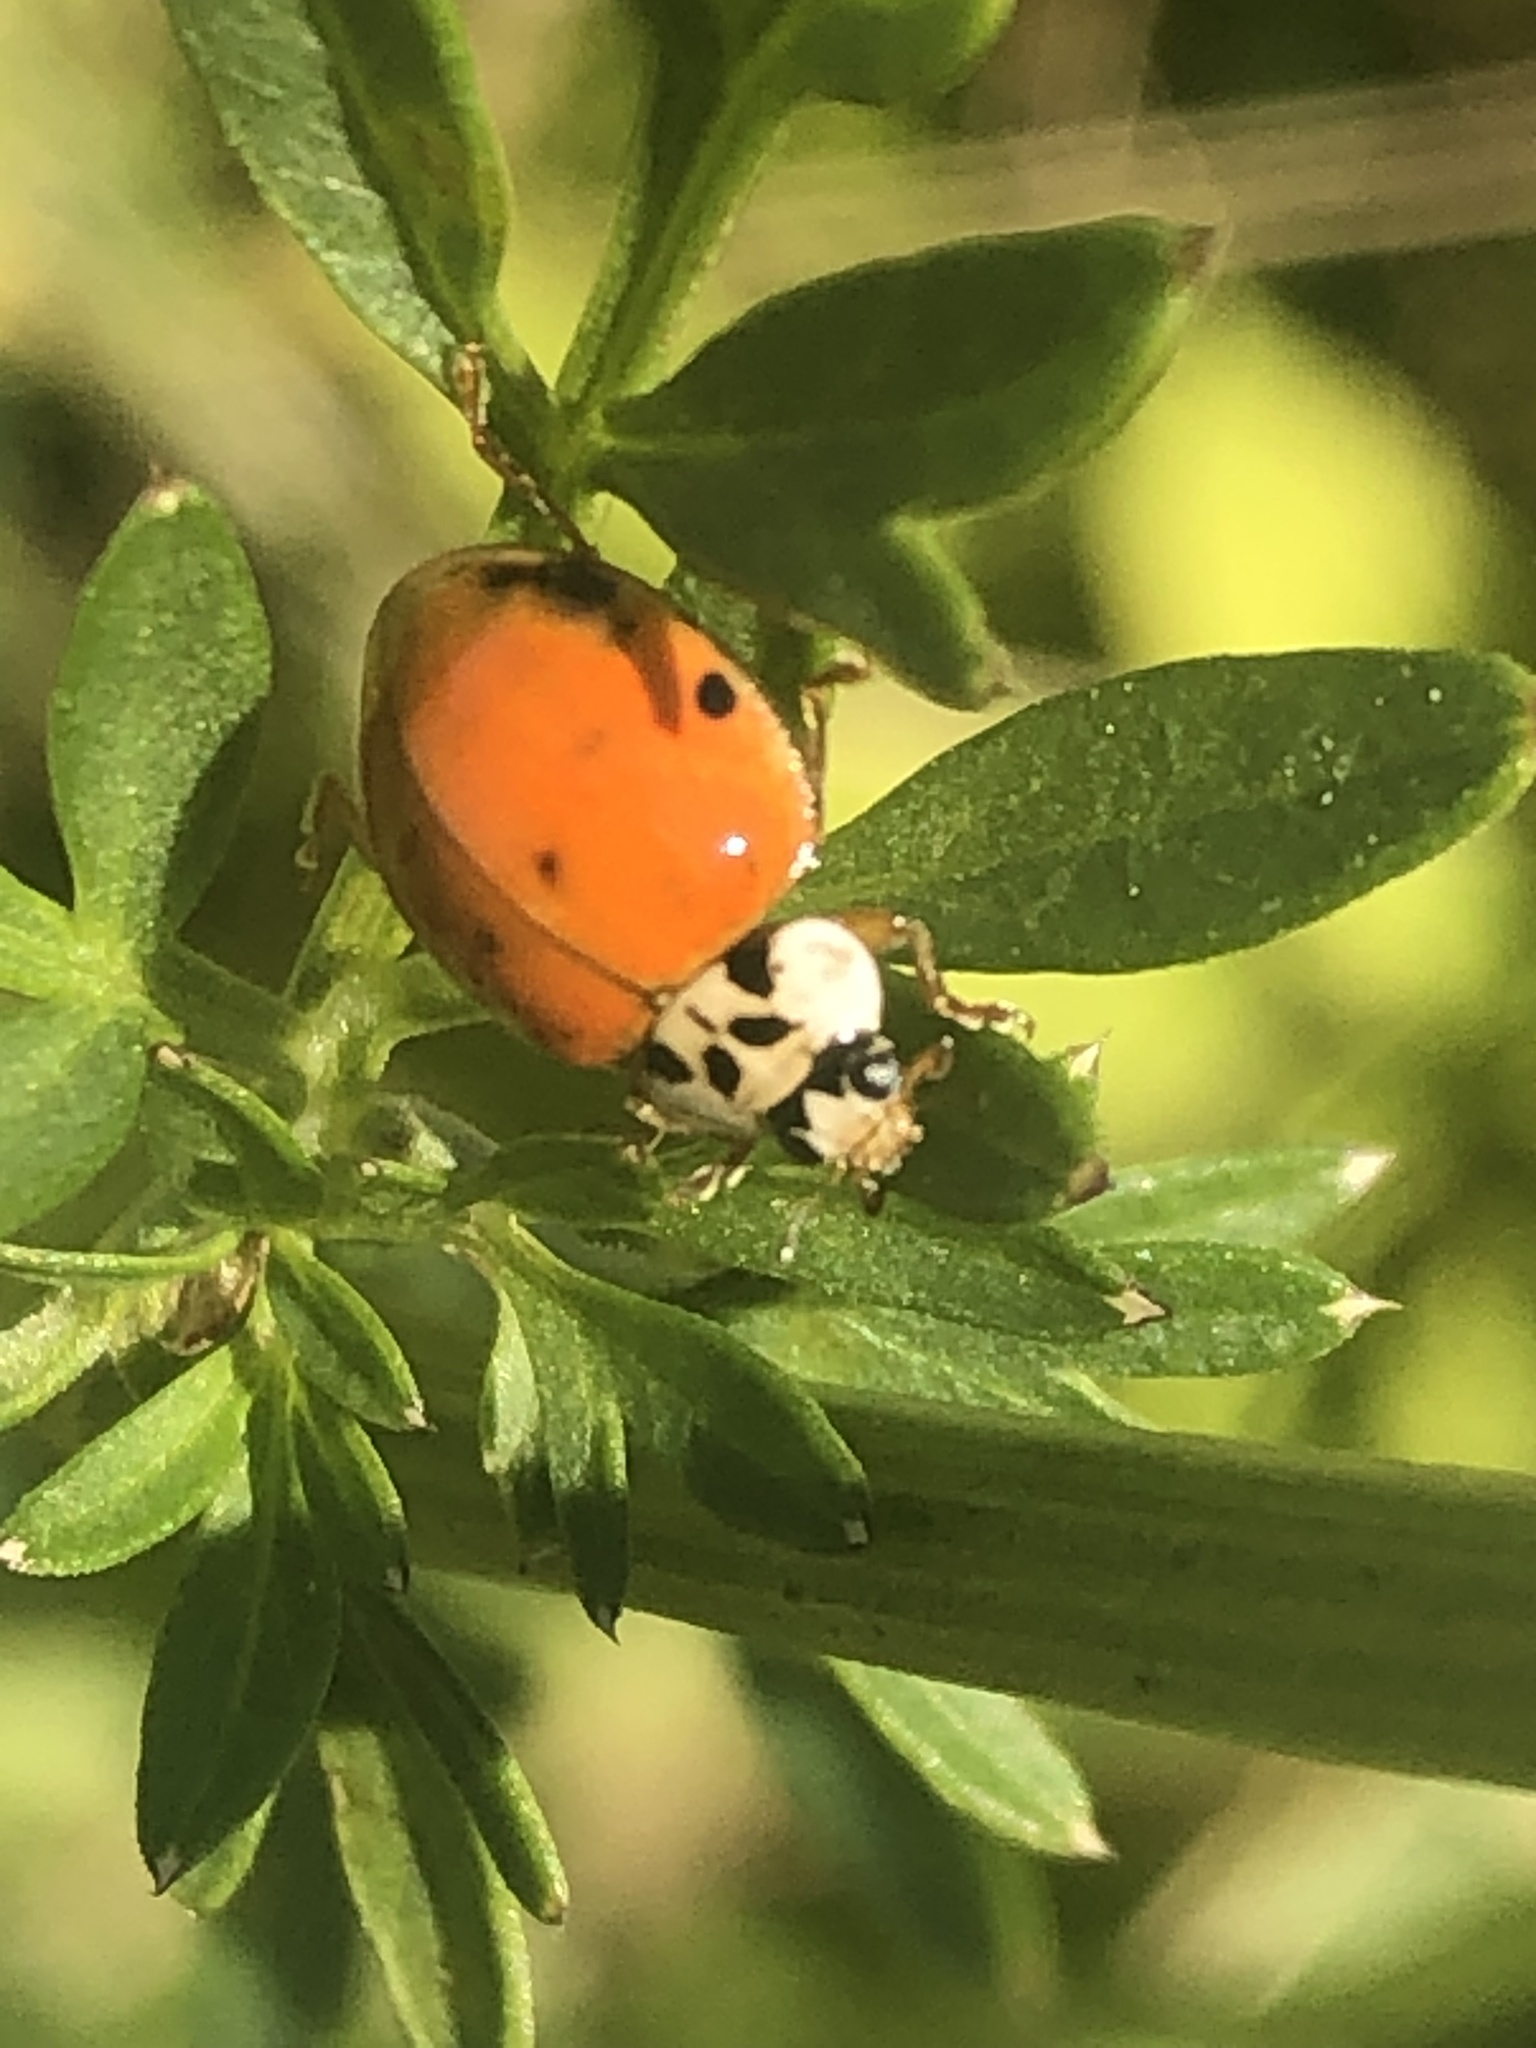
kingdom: Animalia
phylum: Arthropoda
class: Insecta
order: Coleoptera
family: Coccinellidae
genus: Harmonia
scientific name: Harmonia axyridis
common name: Harlequin ladybird
